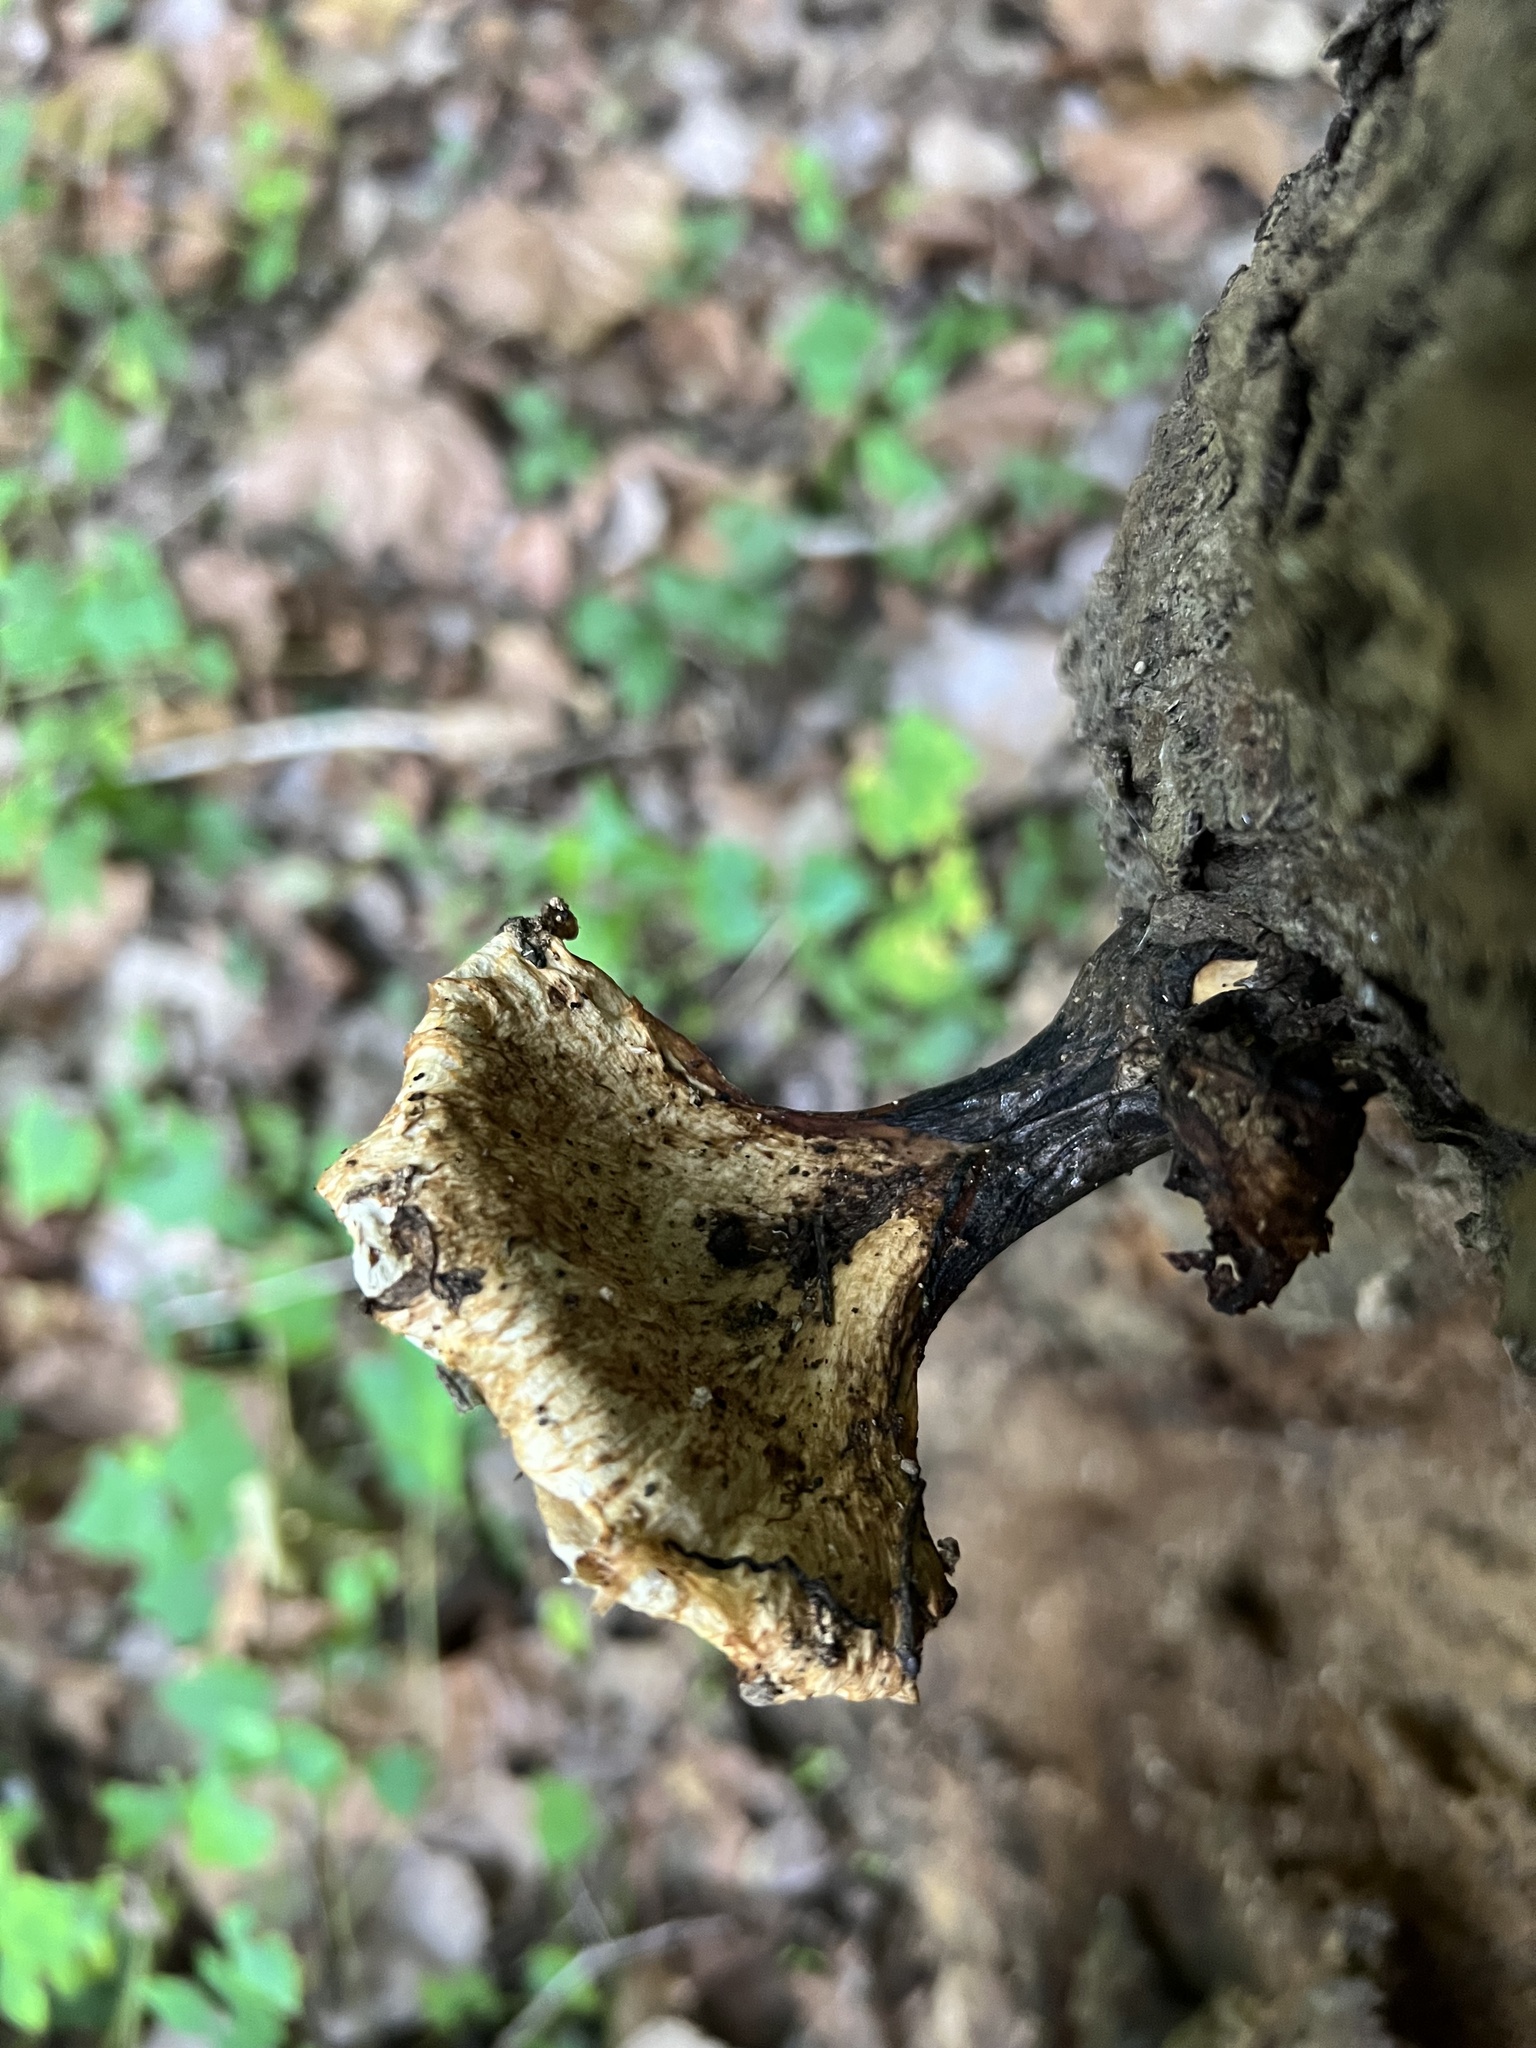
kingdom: Fungi
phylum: Basidiomycota
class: Agaricomycetes
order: Polyporales
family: Polyporaceae
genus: Cerioporus
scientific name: Cerioporus squamosus
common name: Dryad's saddle
